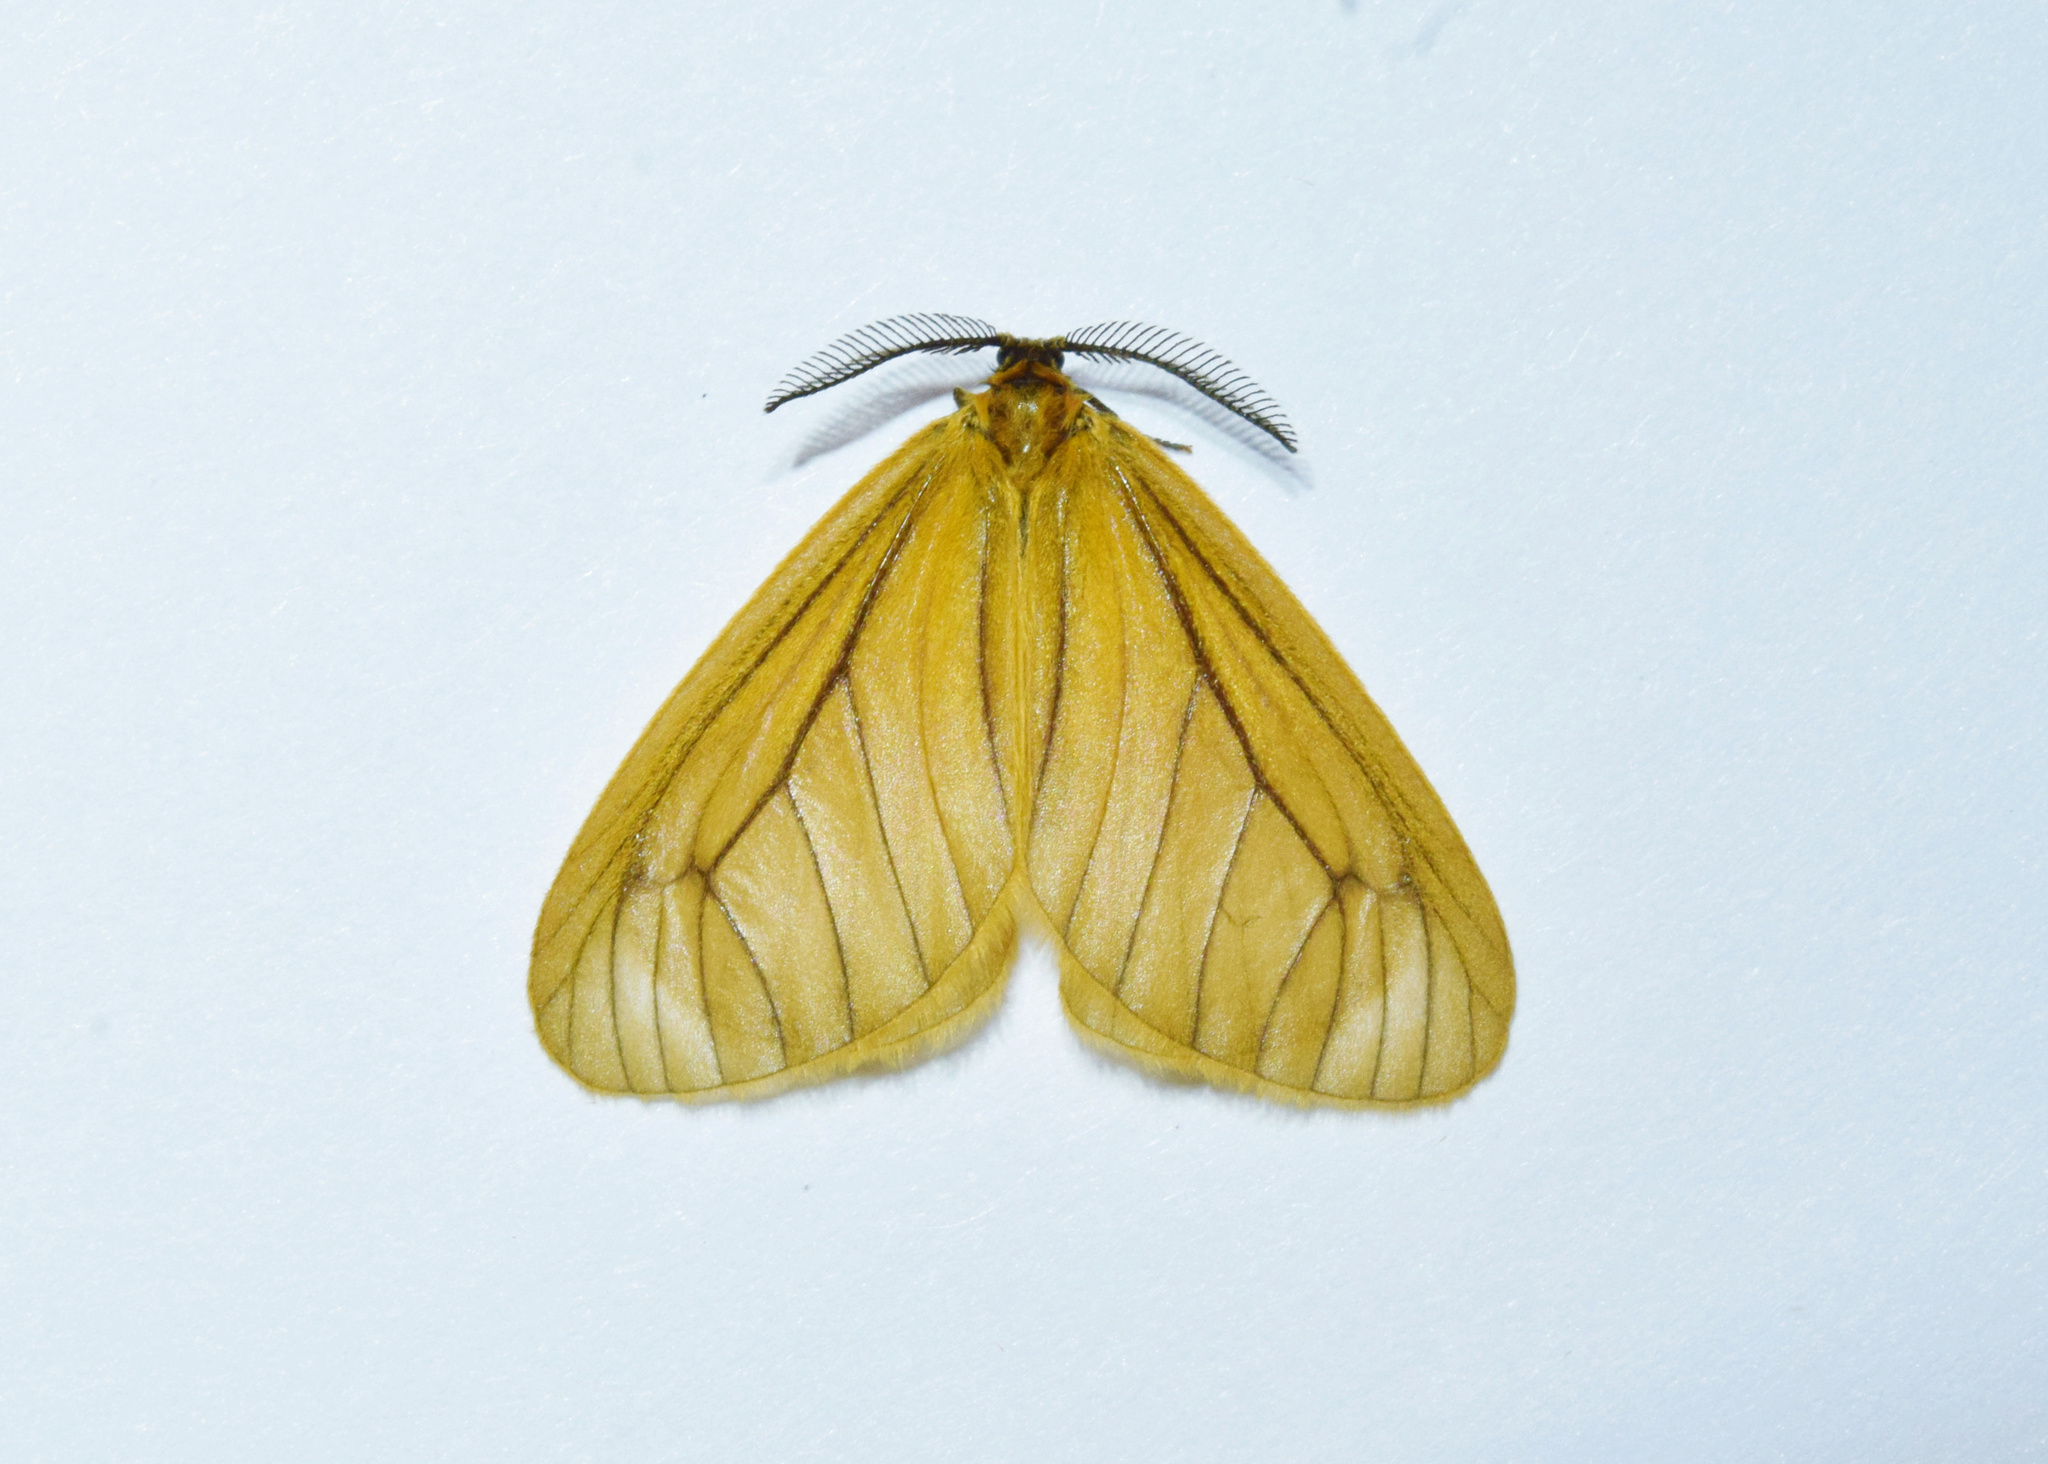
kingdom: Animalia
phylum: Arthropoda
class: Insecta
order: Lepidoptera
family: Himantopteridae
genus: Anamoeotes
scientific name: Anamoeotes nigrivenosus
